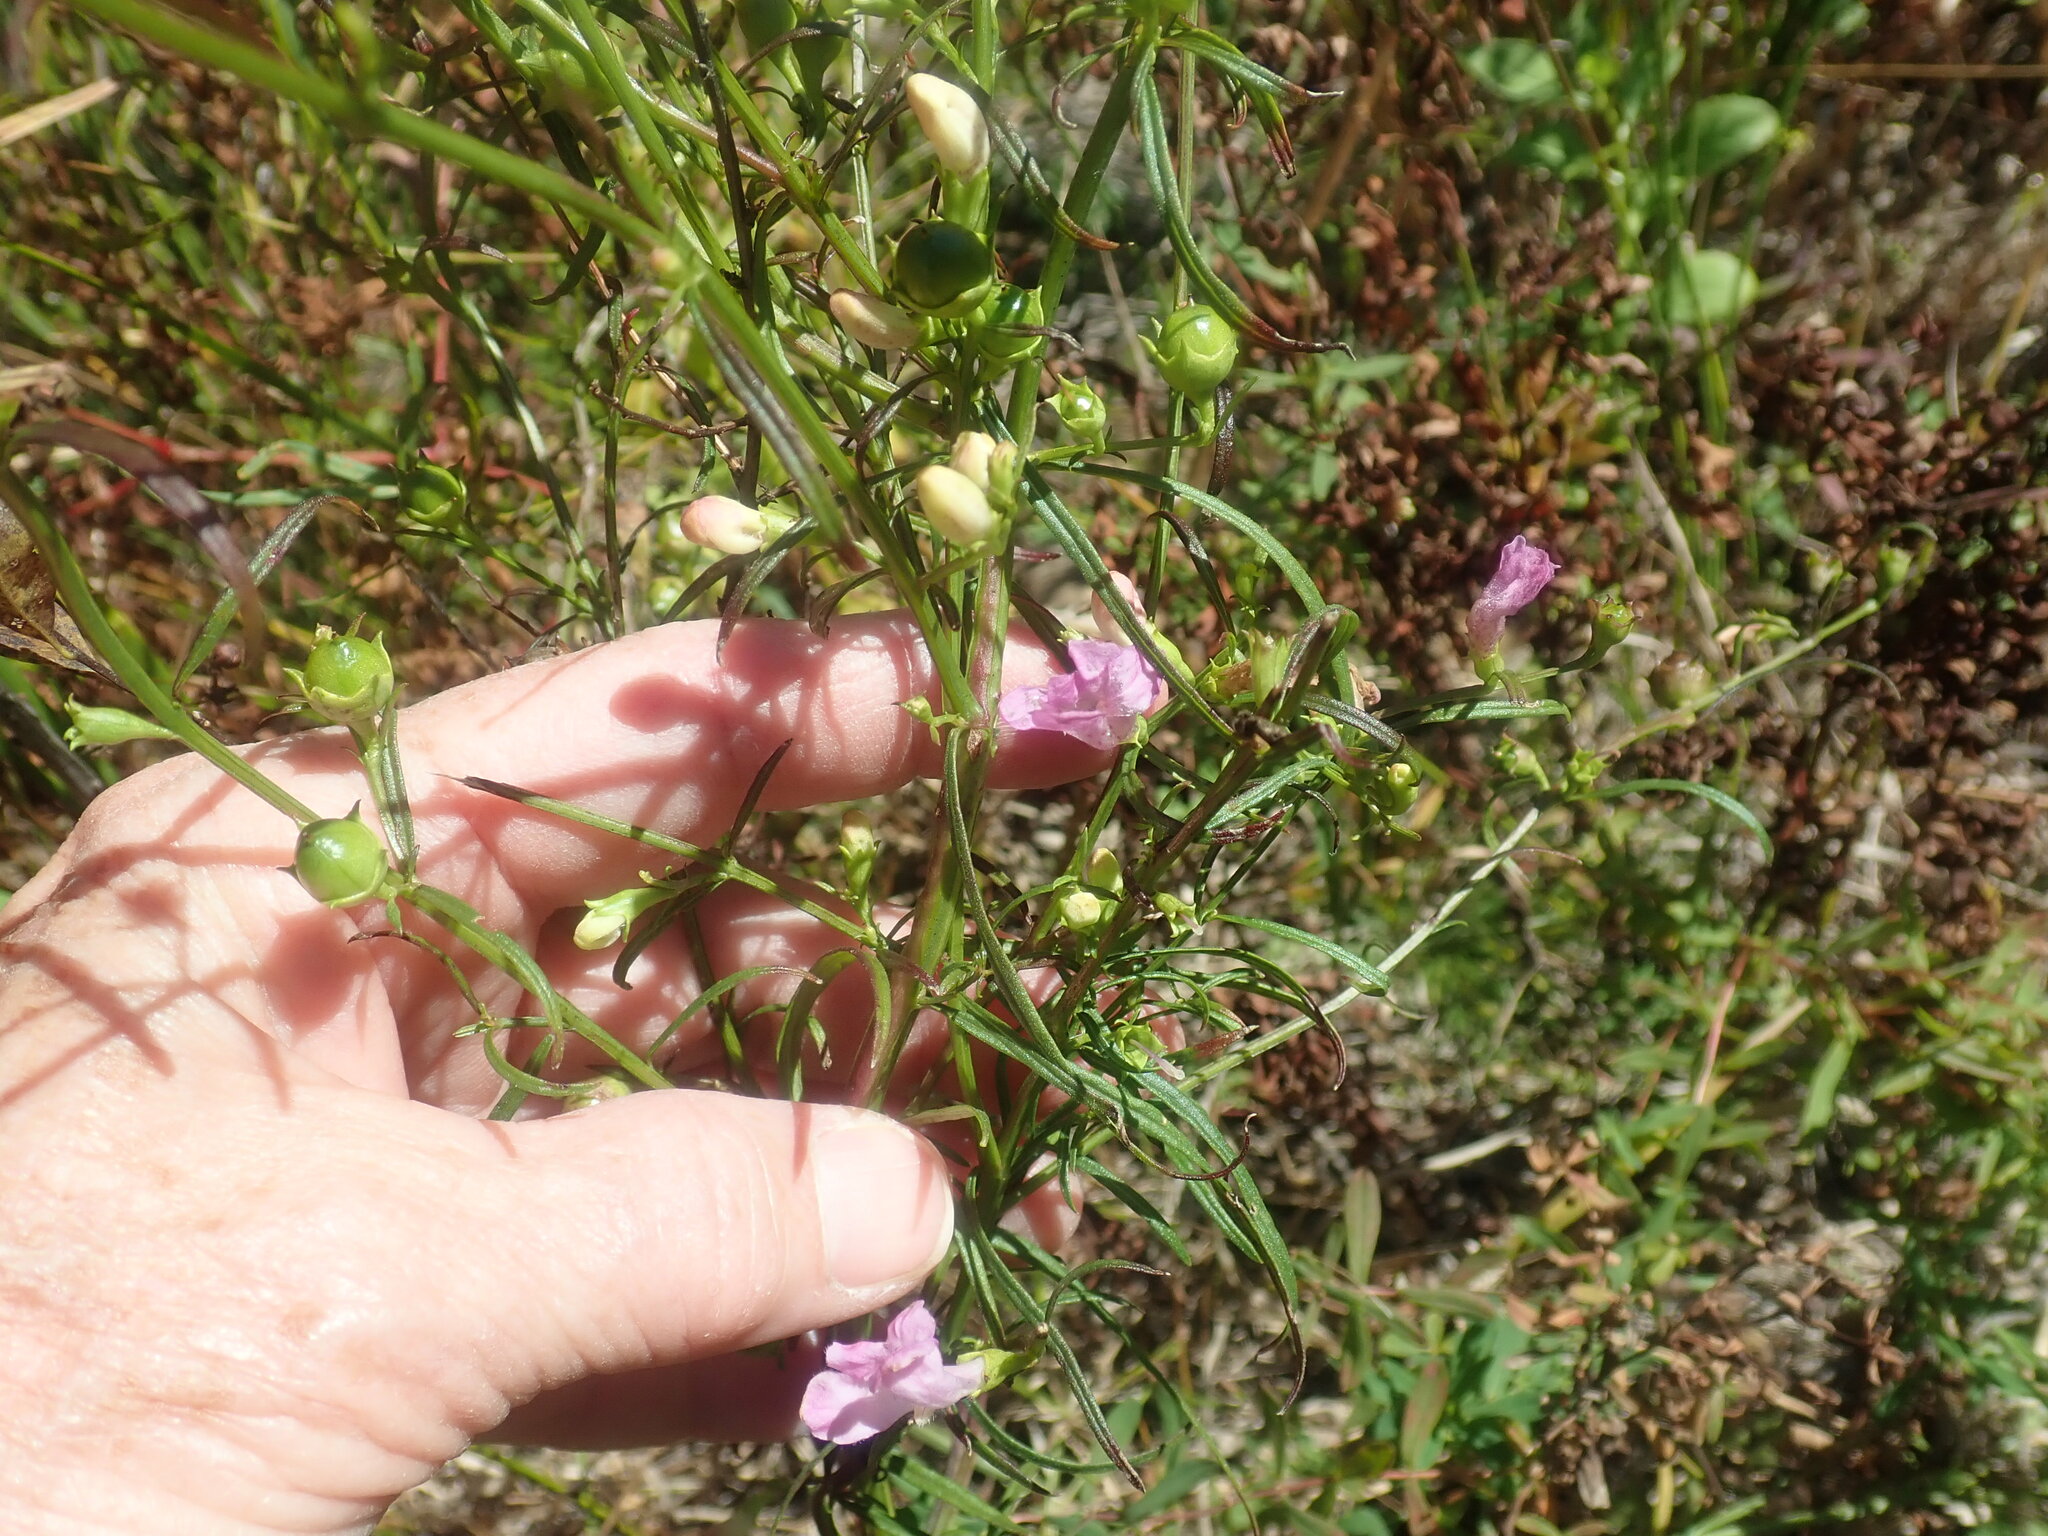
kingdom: Plantae
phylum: Tracheophyta
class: Magnoliopsida
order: Lamiales
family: Orobanchaceae
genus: Agalinis
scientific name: Agalinis
